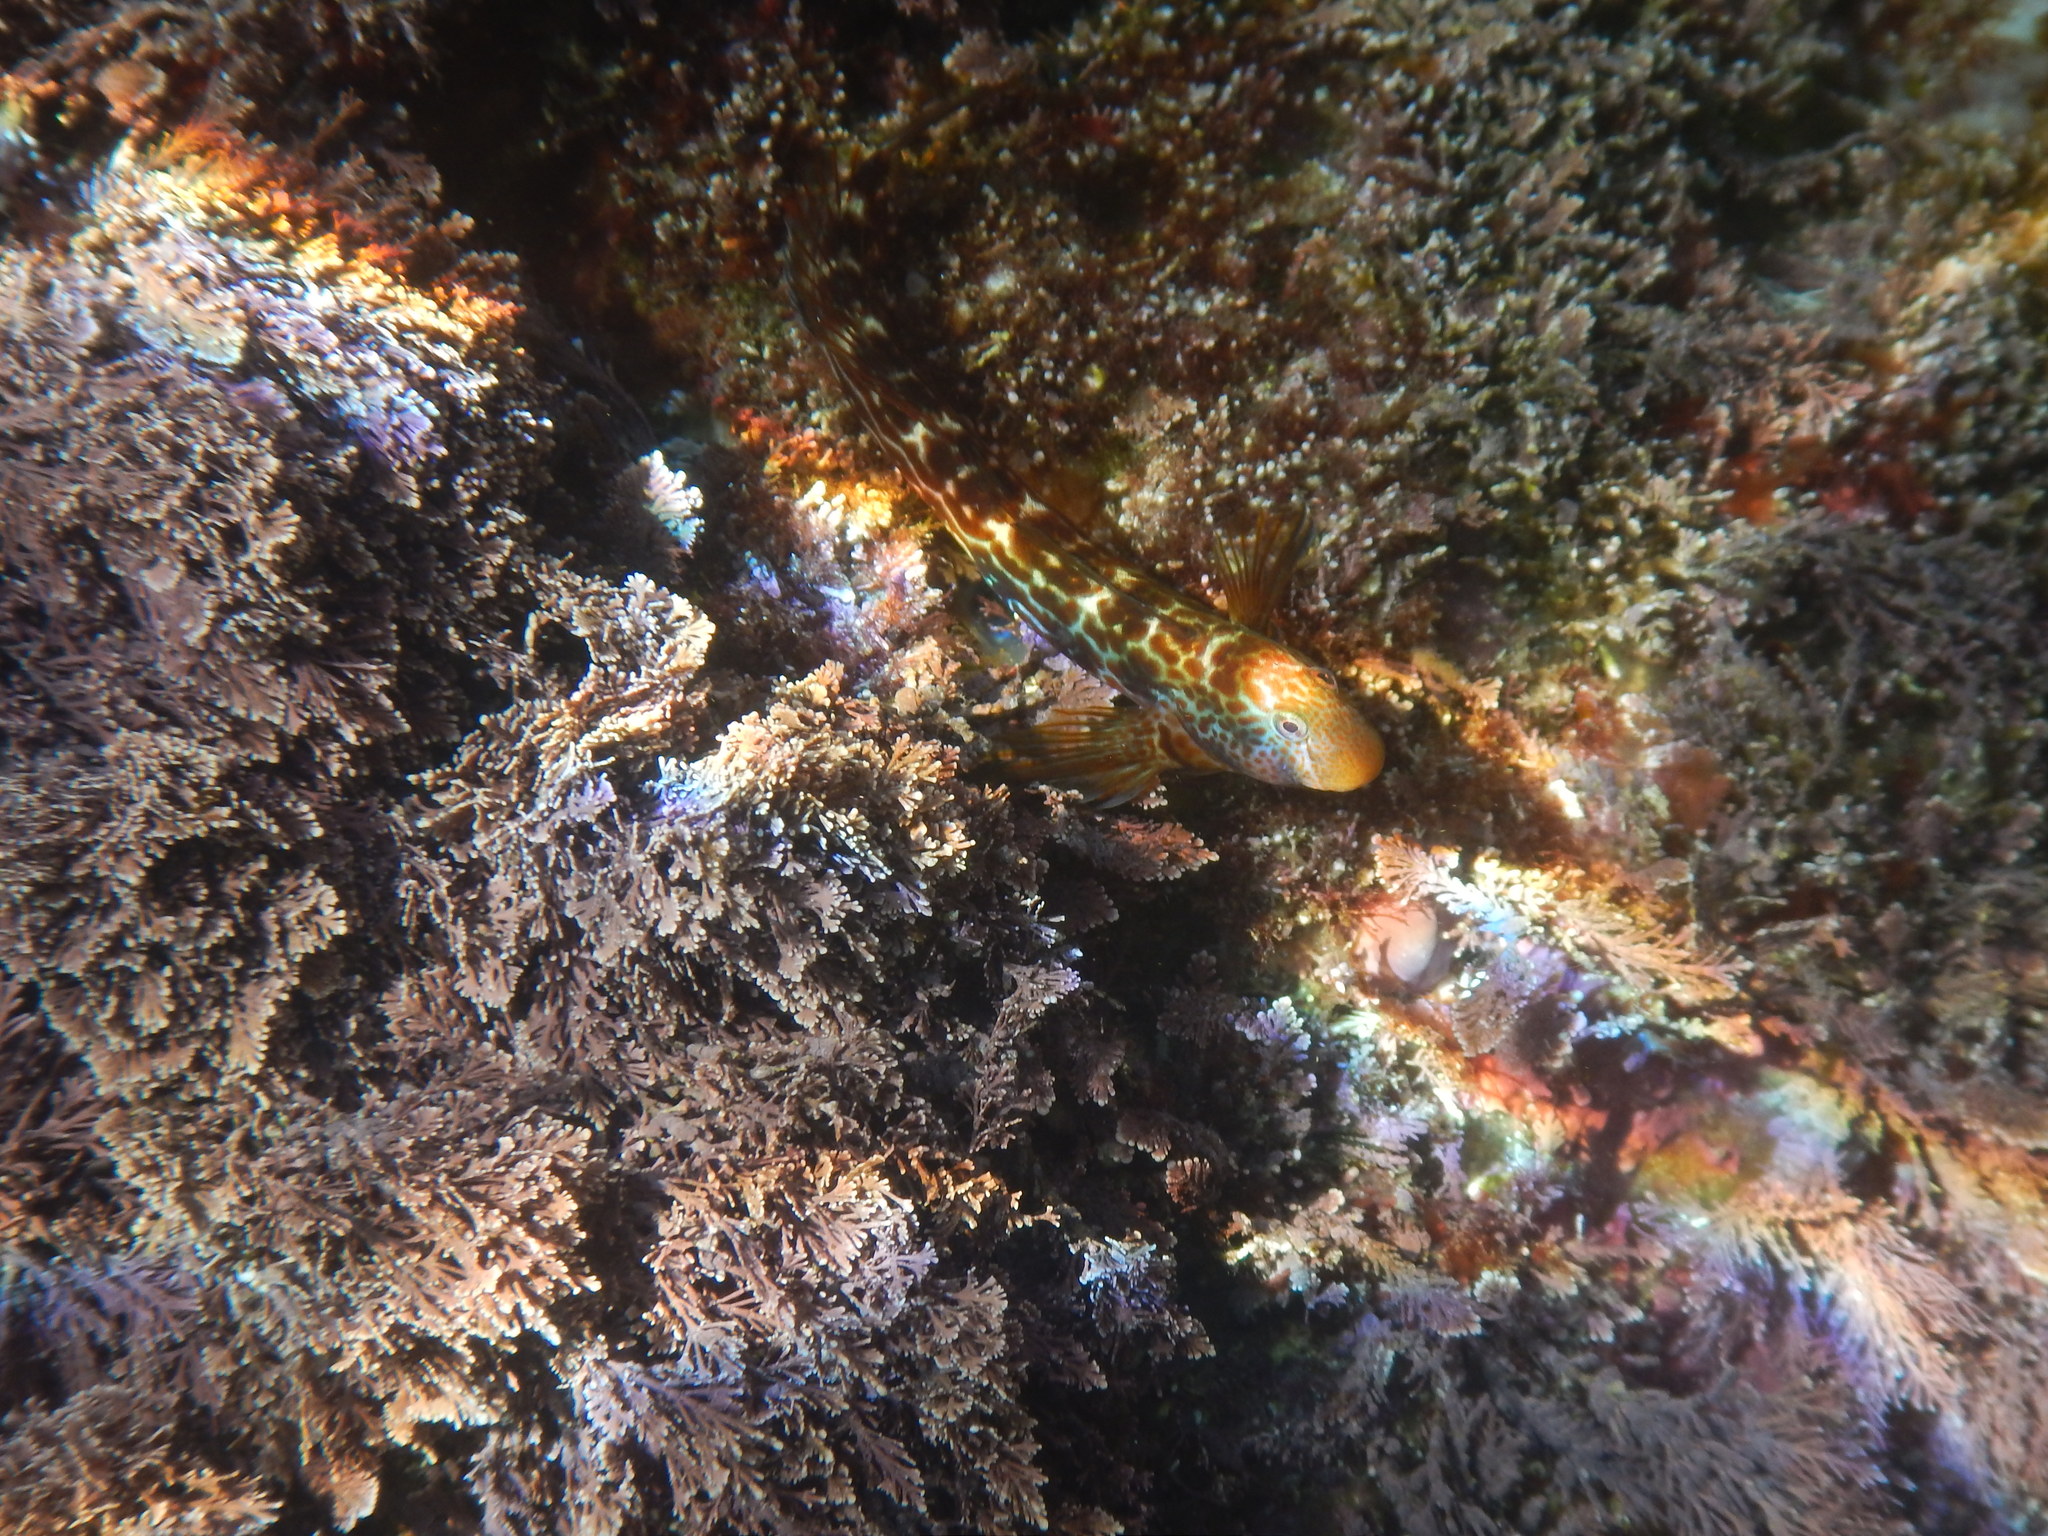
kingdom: Animalia
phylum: Chordata
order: Perciformes
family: Blenniidae
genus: Microlipophrys
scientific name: Microlipophrys canevae
